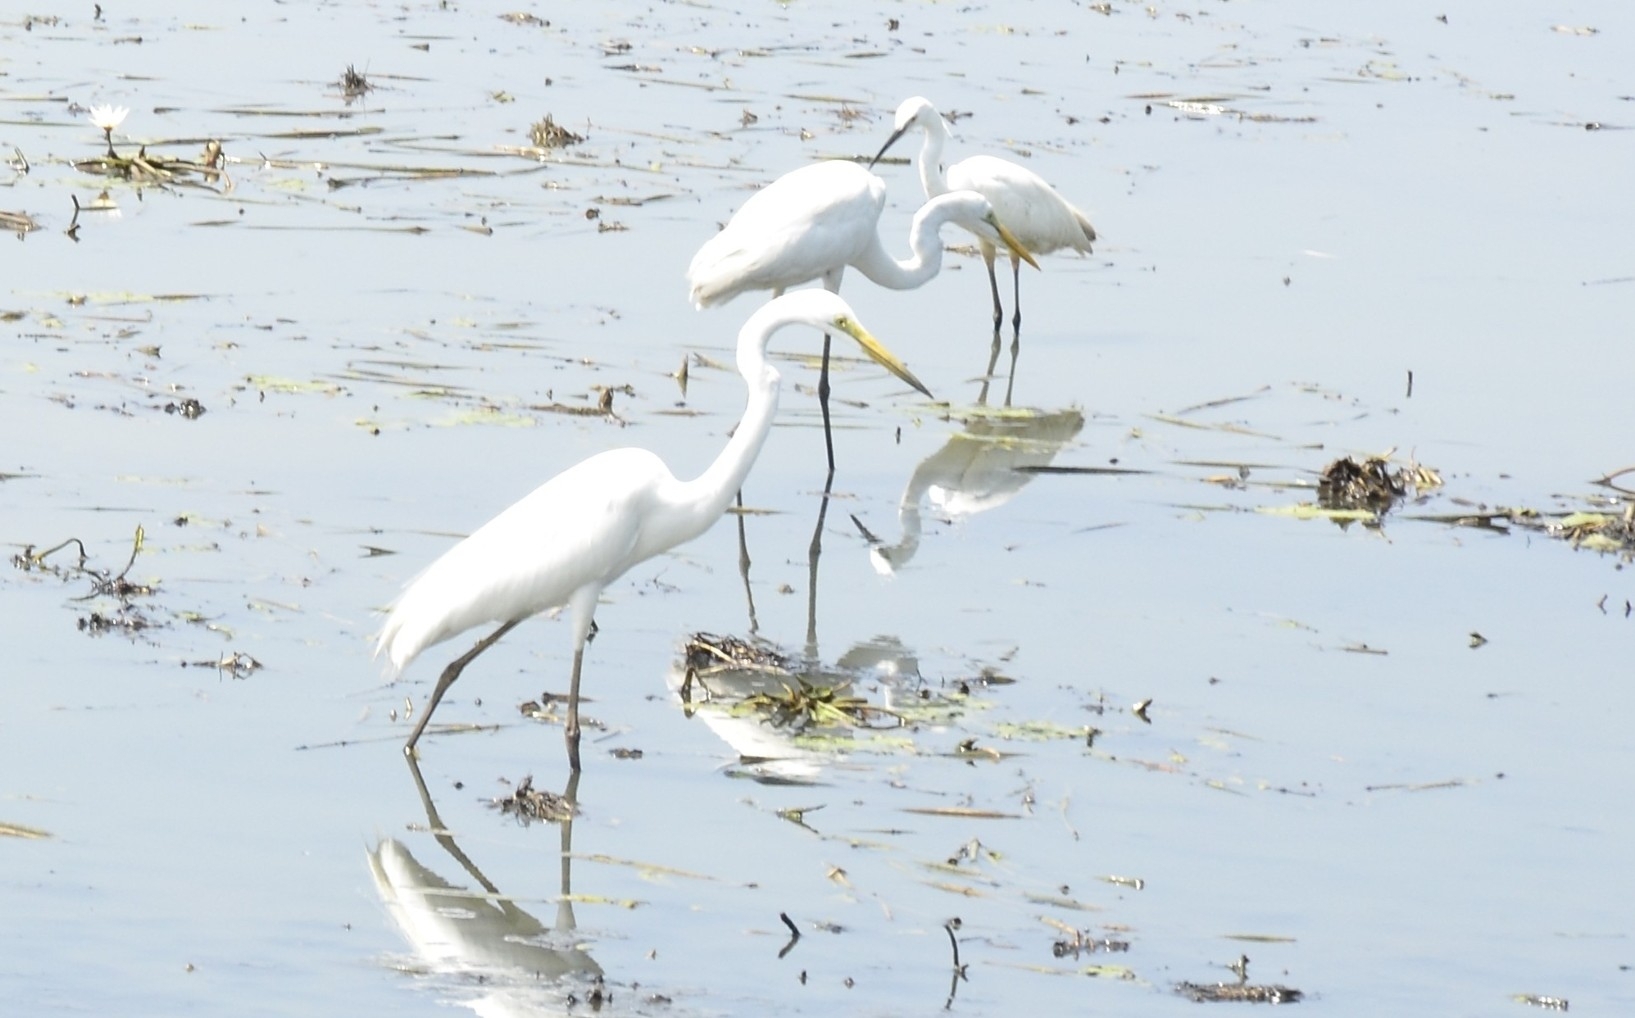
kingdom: Animalia
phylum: Chordata
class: Aves
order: Pelecaniformes
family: Ardeidae
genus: Ardea
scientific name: Ardea alba
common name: Great egret
